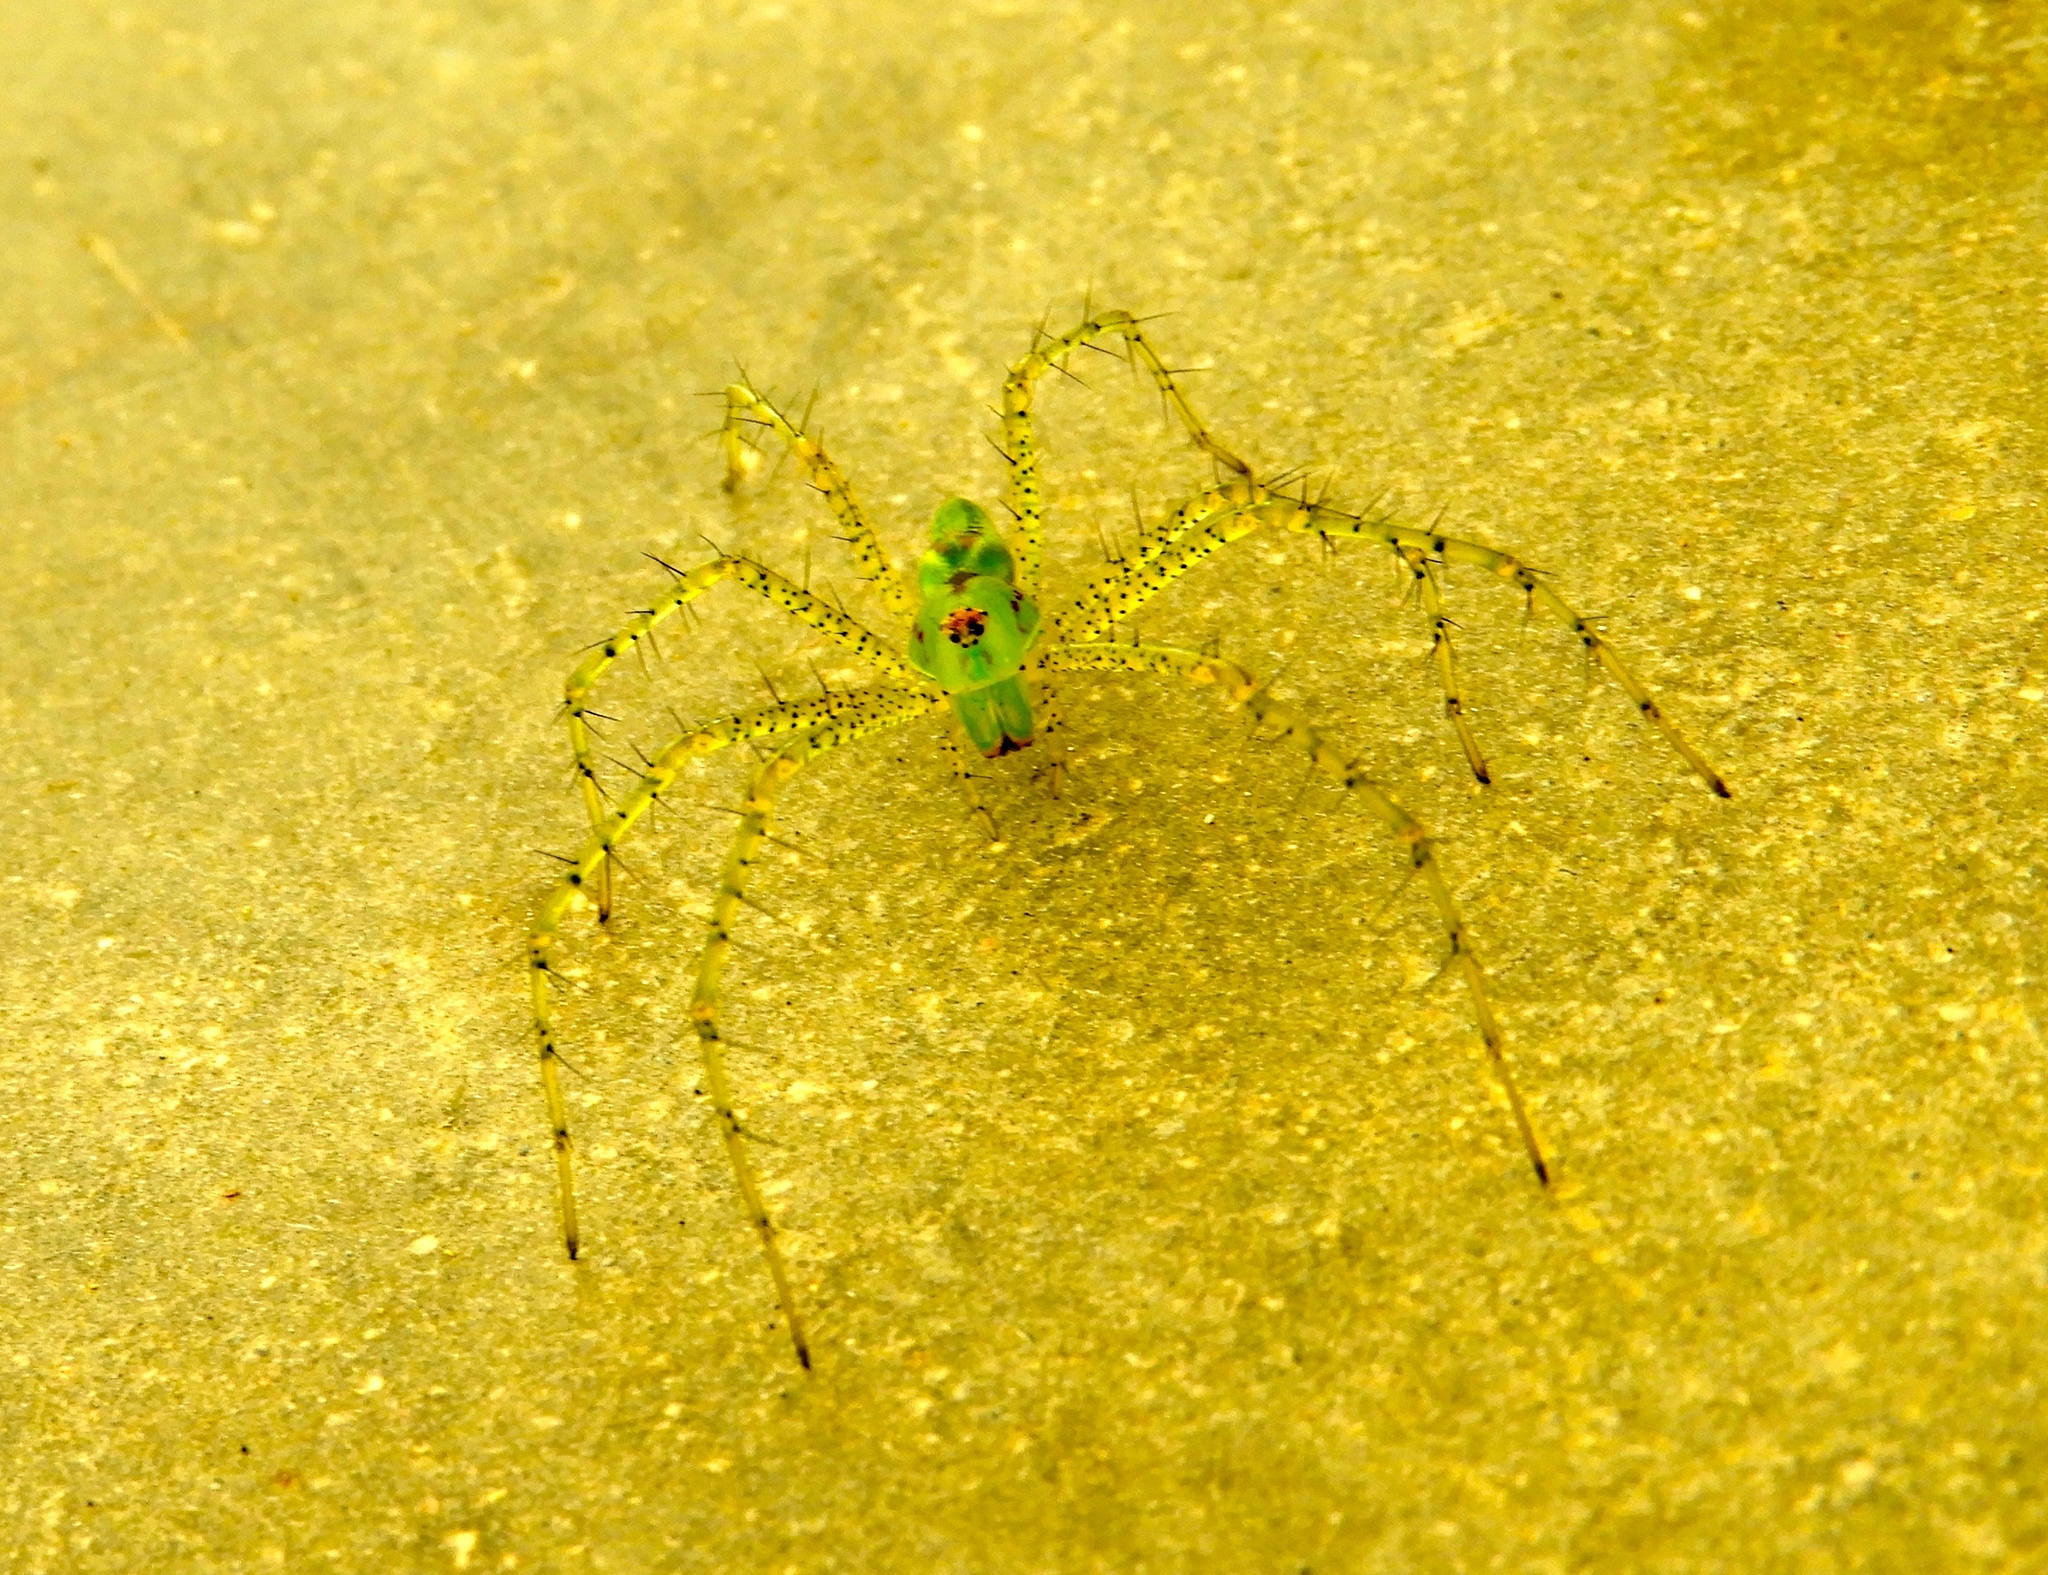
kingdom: Animalia
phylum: Arthropoda
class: Arachnida
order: Araneae
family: Oxyopidae
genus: Peucetia
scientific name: Peucetia
